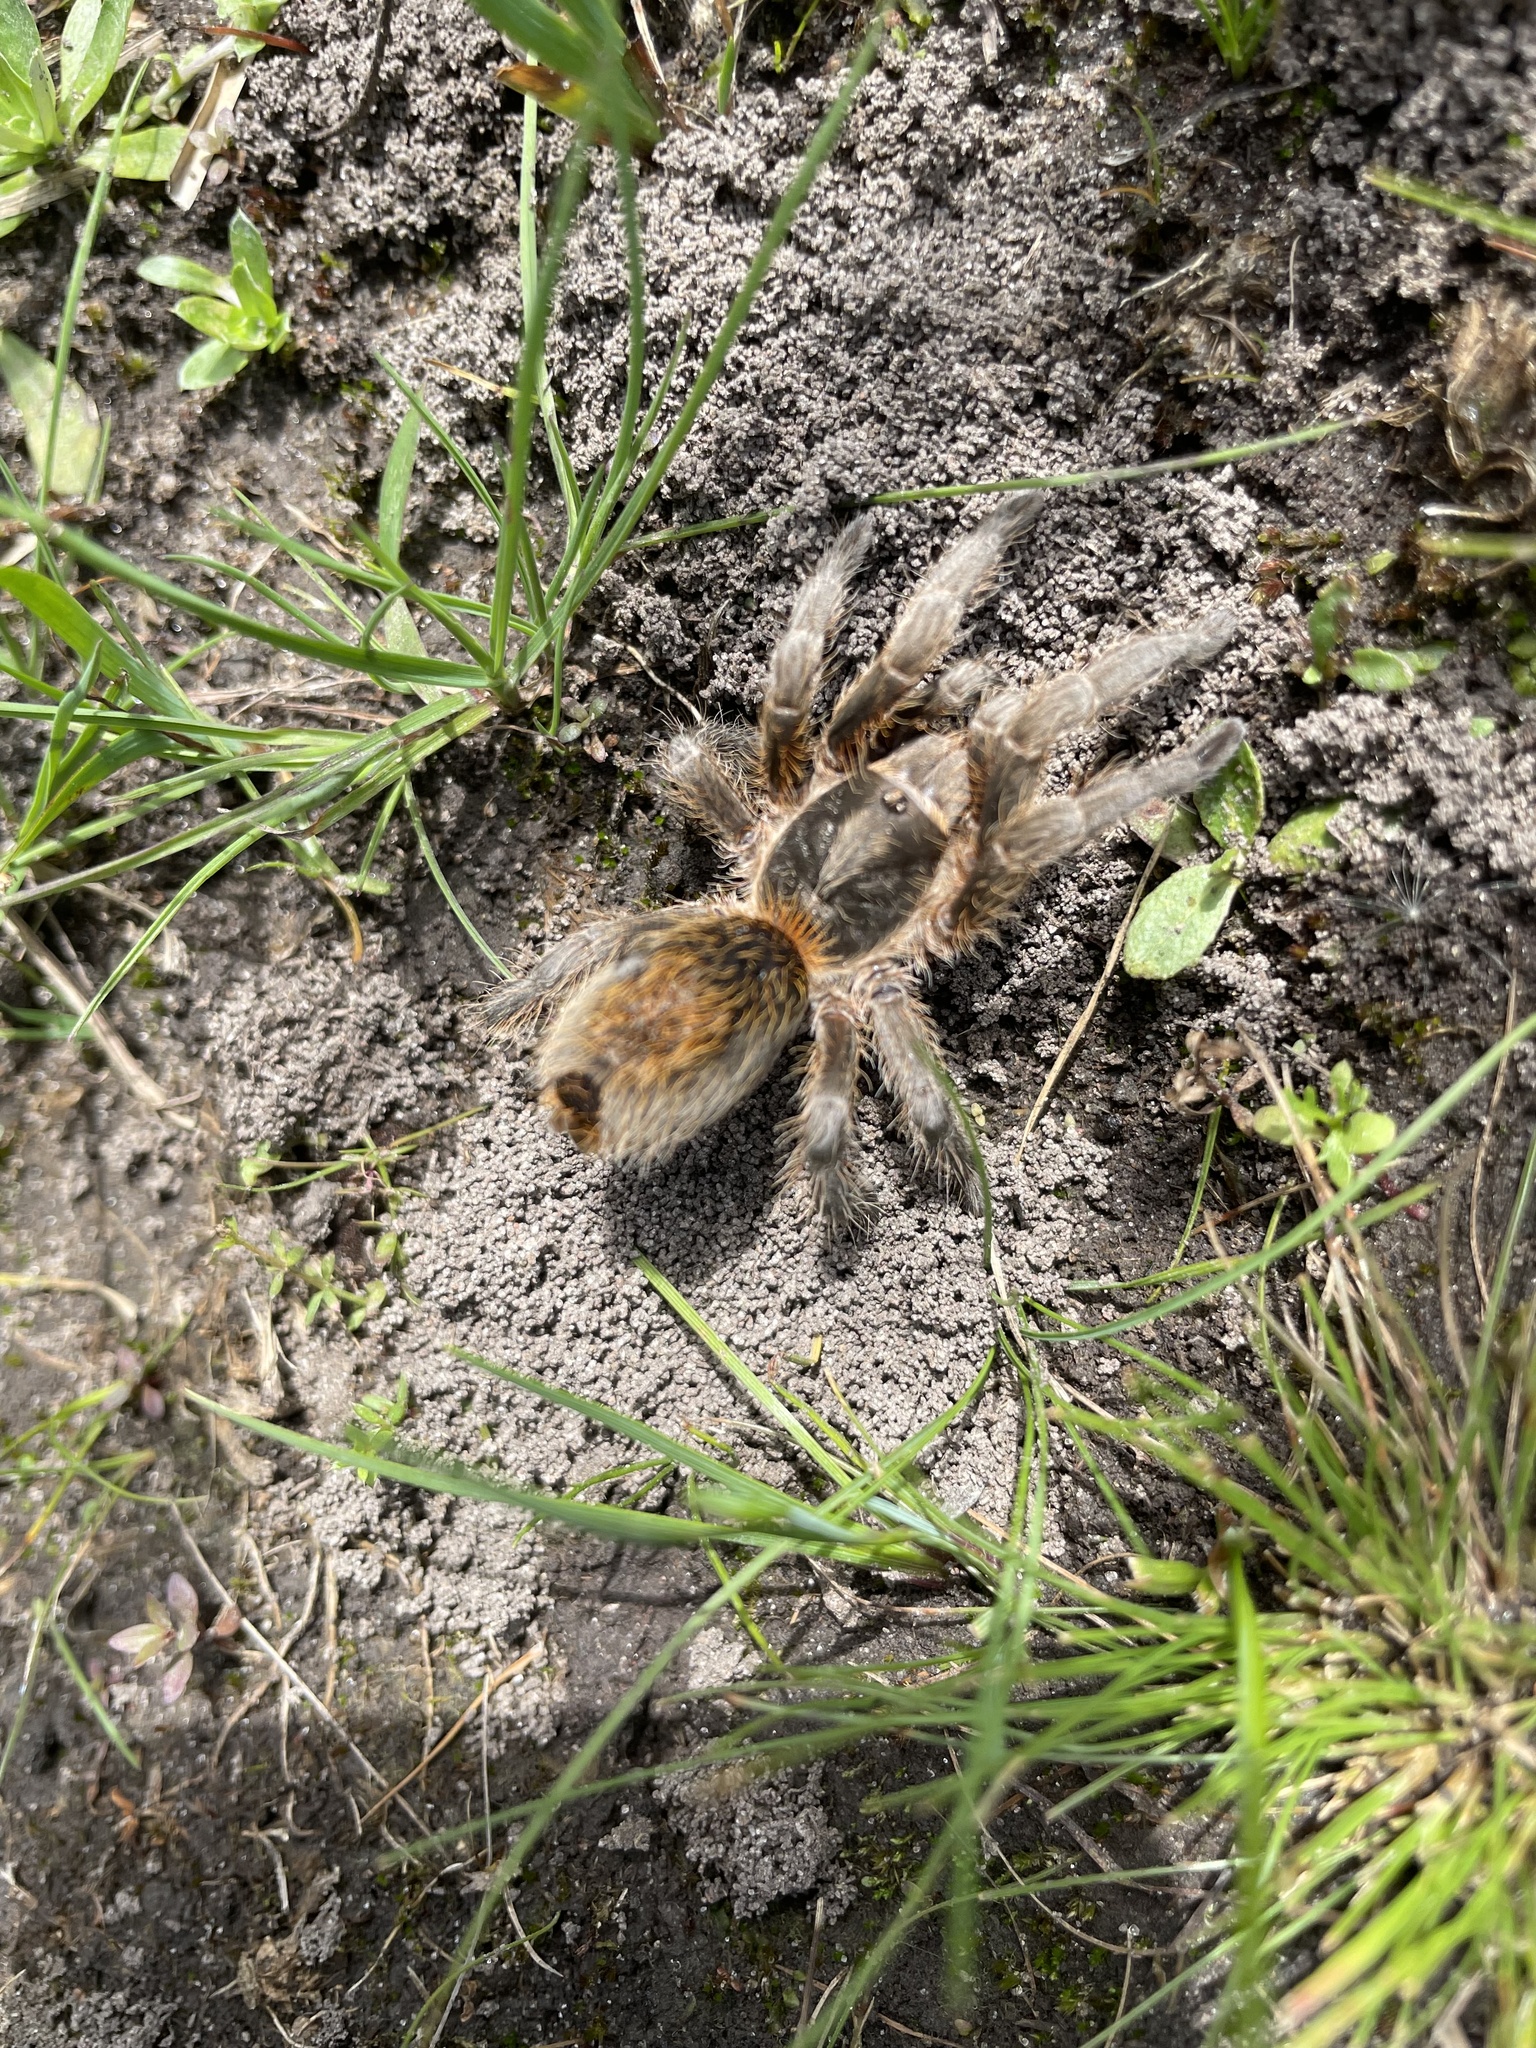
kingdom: Animalia
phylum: Arthropoda
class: Arachnida
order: Araneae
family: Theraphosidae
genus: Plesiopelma
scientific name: Plesiopelma longisternale
